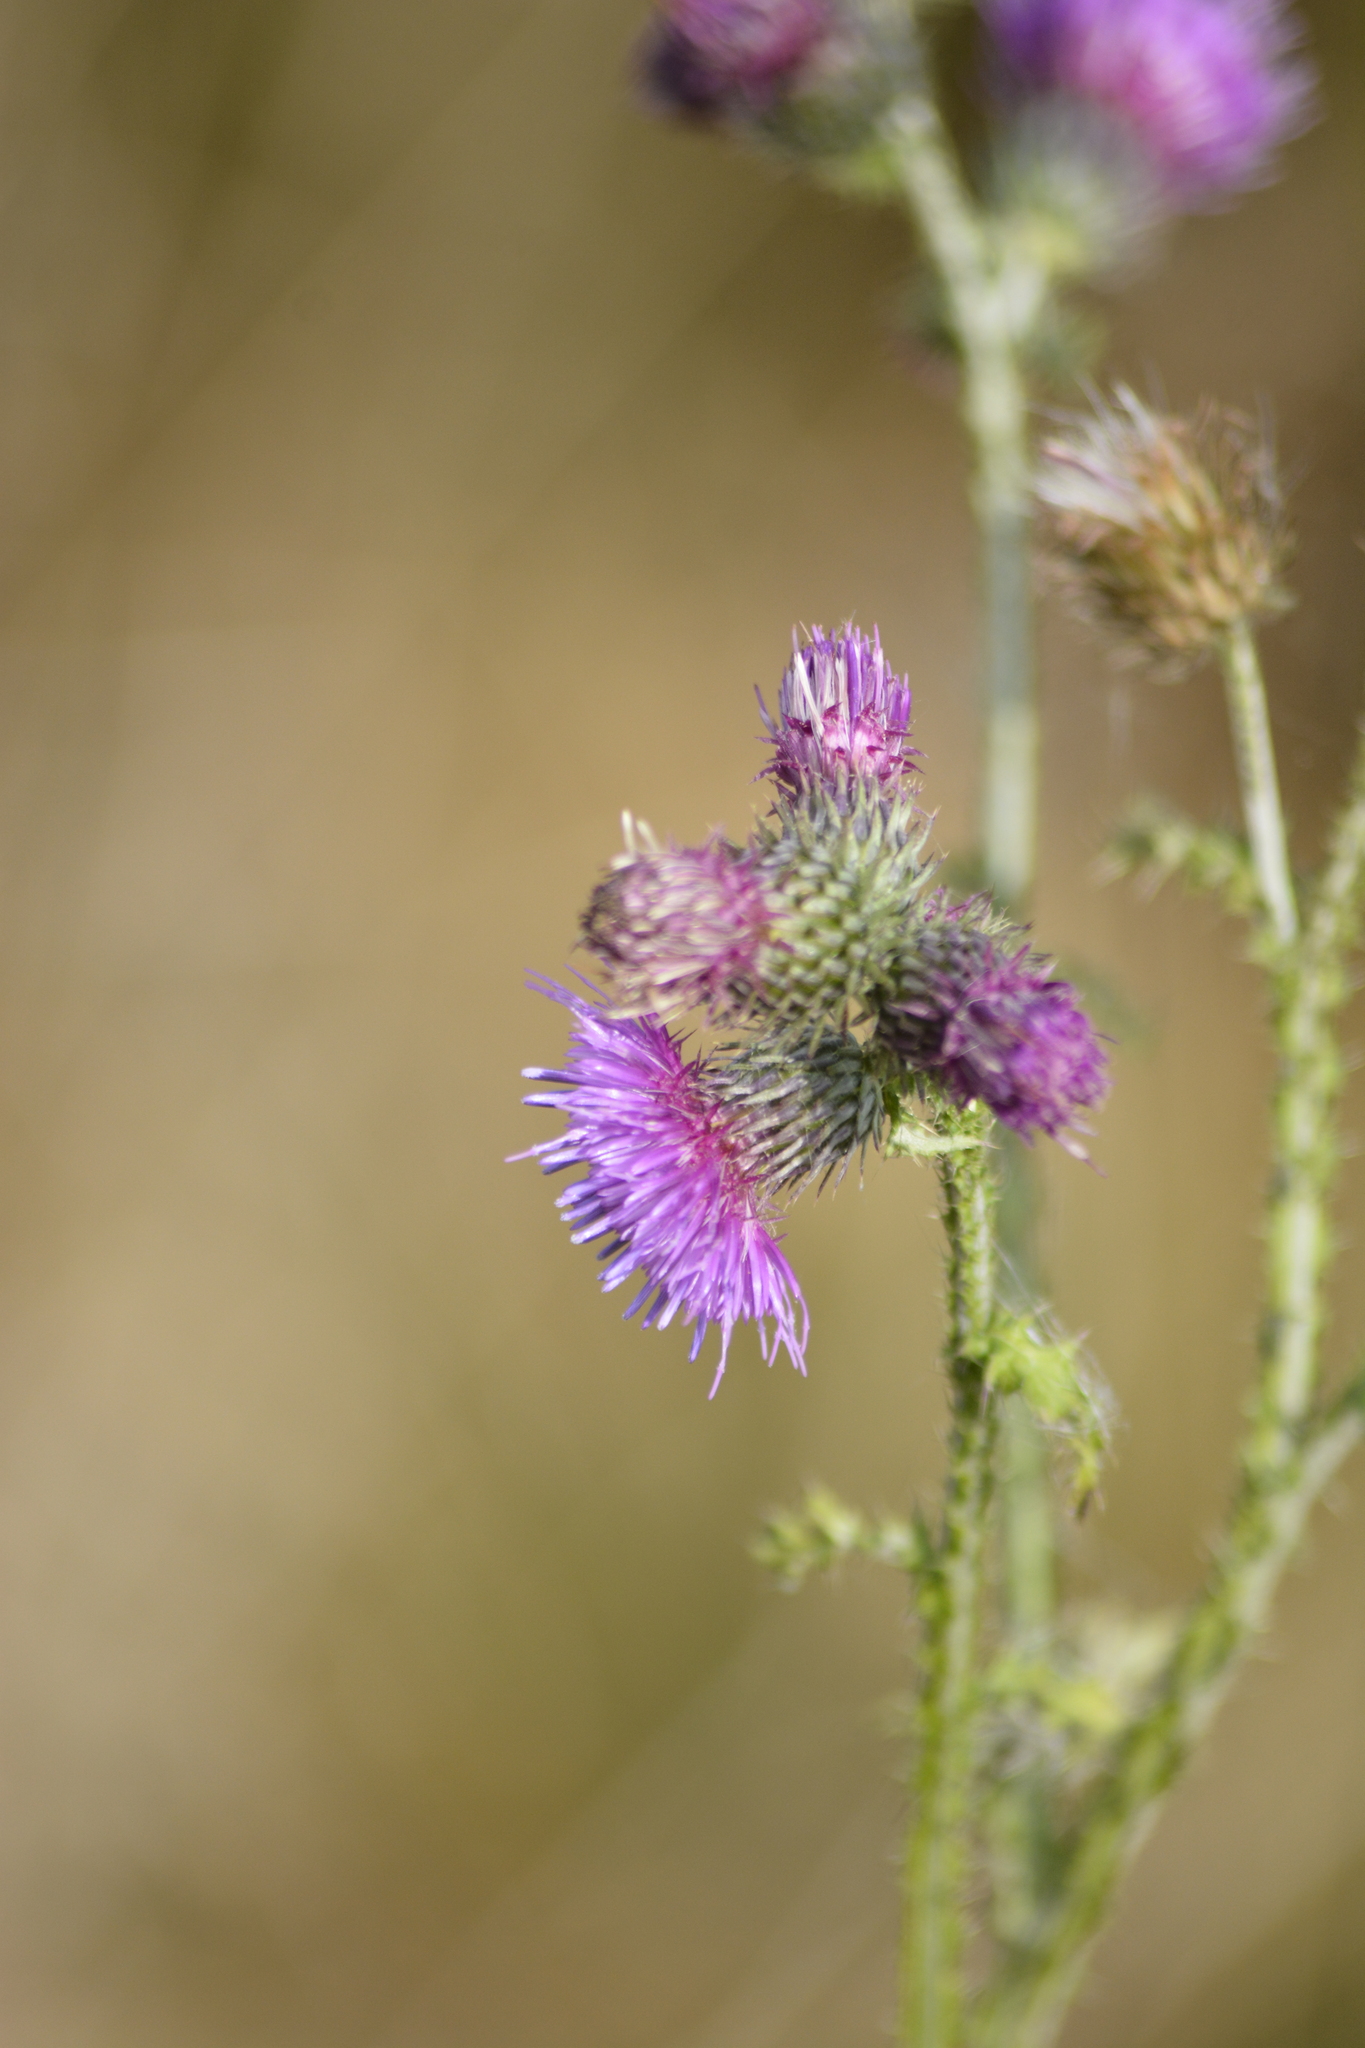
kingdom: Plantae
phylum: Tracheophyta
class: Magnoliopsida
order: Asterales
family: Asteraceae
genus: Carduus
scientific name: Carduus crispus
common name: Welted thistle
